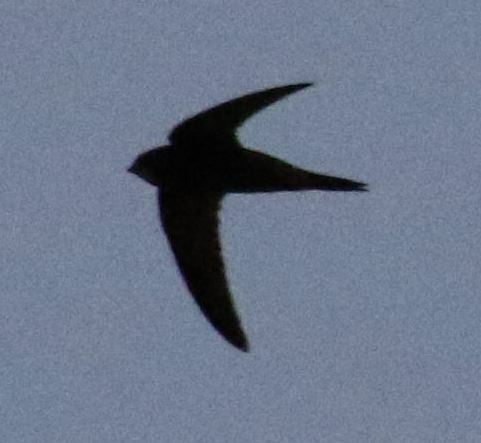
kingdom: Animalia
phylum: Chordata
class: Aves
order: Apodiformes
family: Apodidae
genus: Apus
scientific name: Apus apus
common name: Common swift
